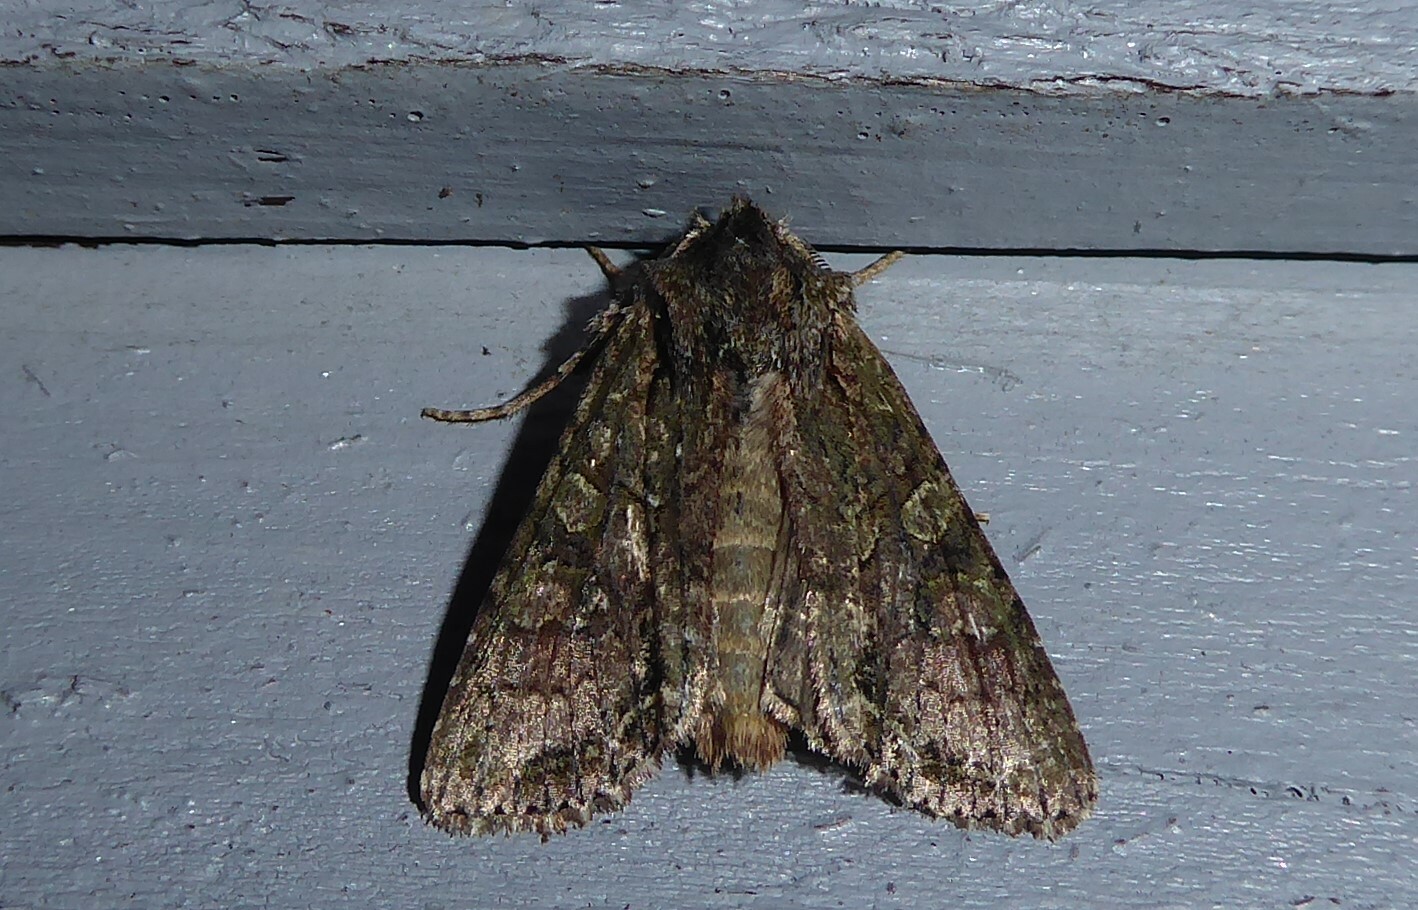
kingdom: Animalia
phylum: Arthropoda
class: Insecta
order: Lepidoptera
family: Noctuidae
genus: Ichneutica
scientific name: Ichneutica mutans
